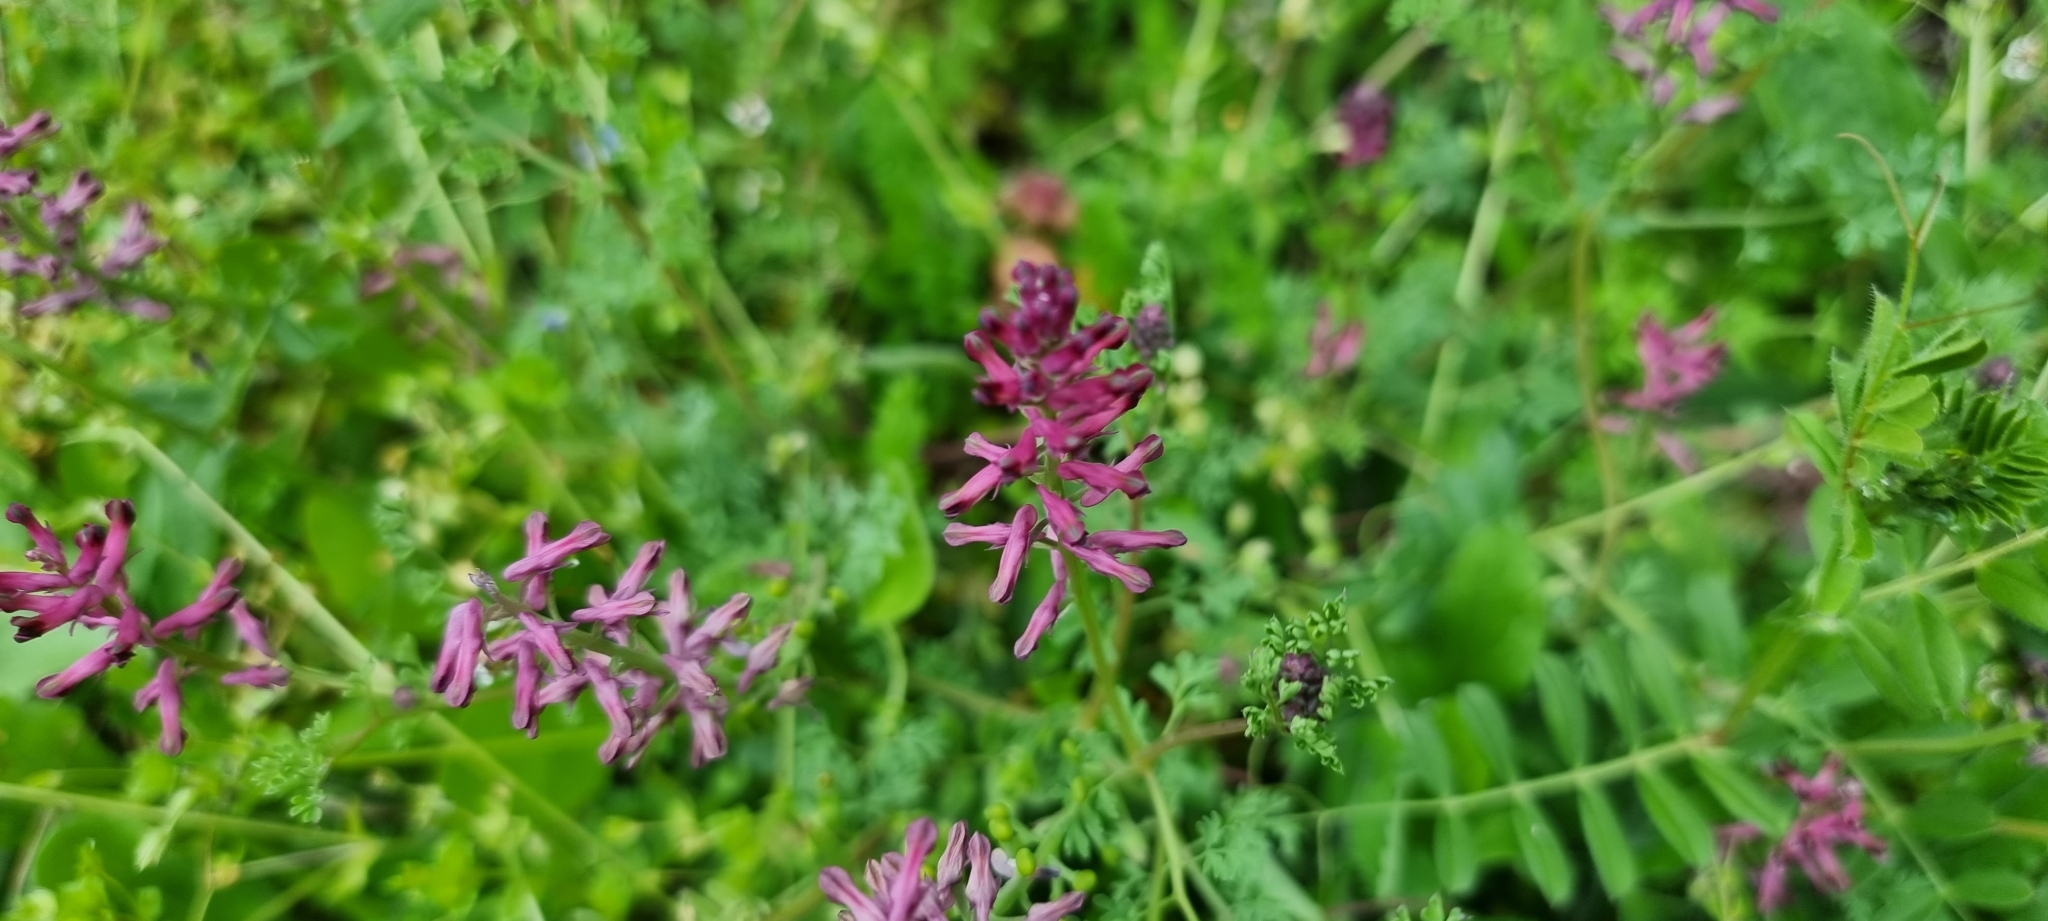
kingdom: Plantae
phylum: Tracheophyta
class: Magnoliopsida
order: Ranunculales
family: Papaveraceae
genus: Fumaria
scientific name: Fumaria officinalis
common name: Common fumitory
